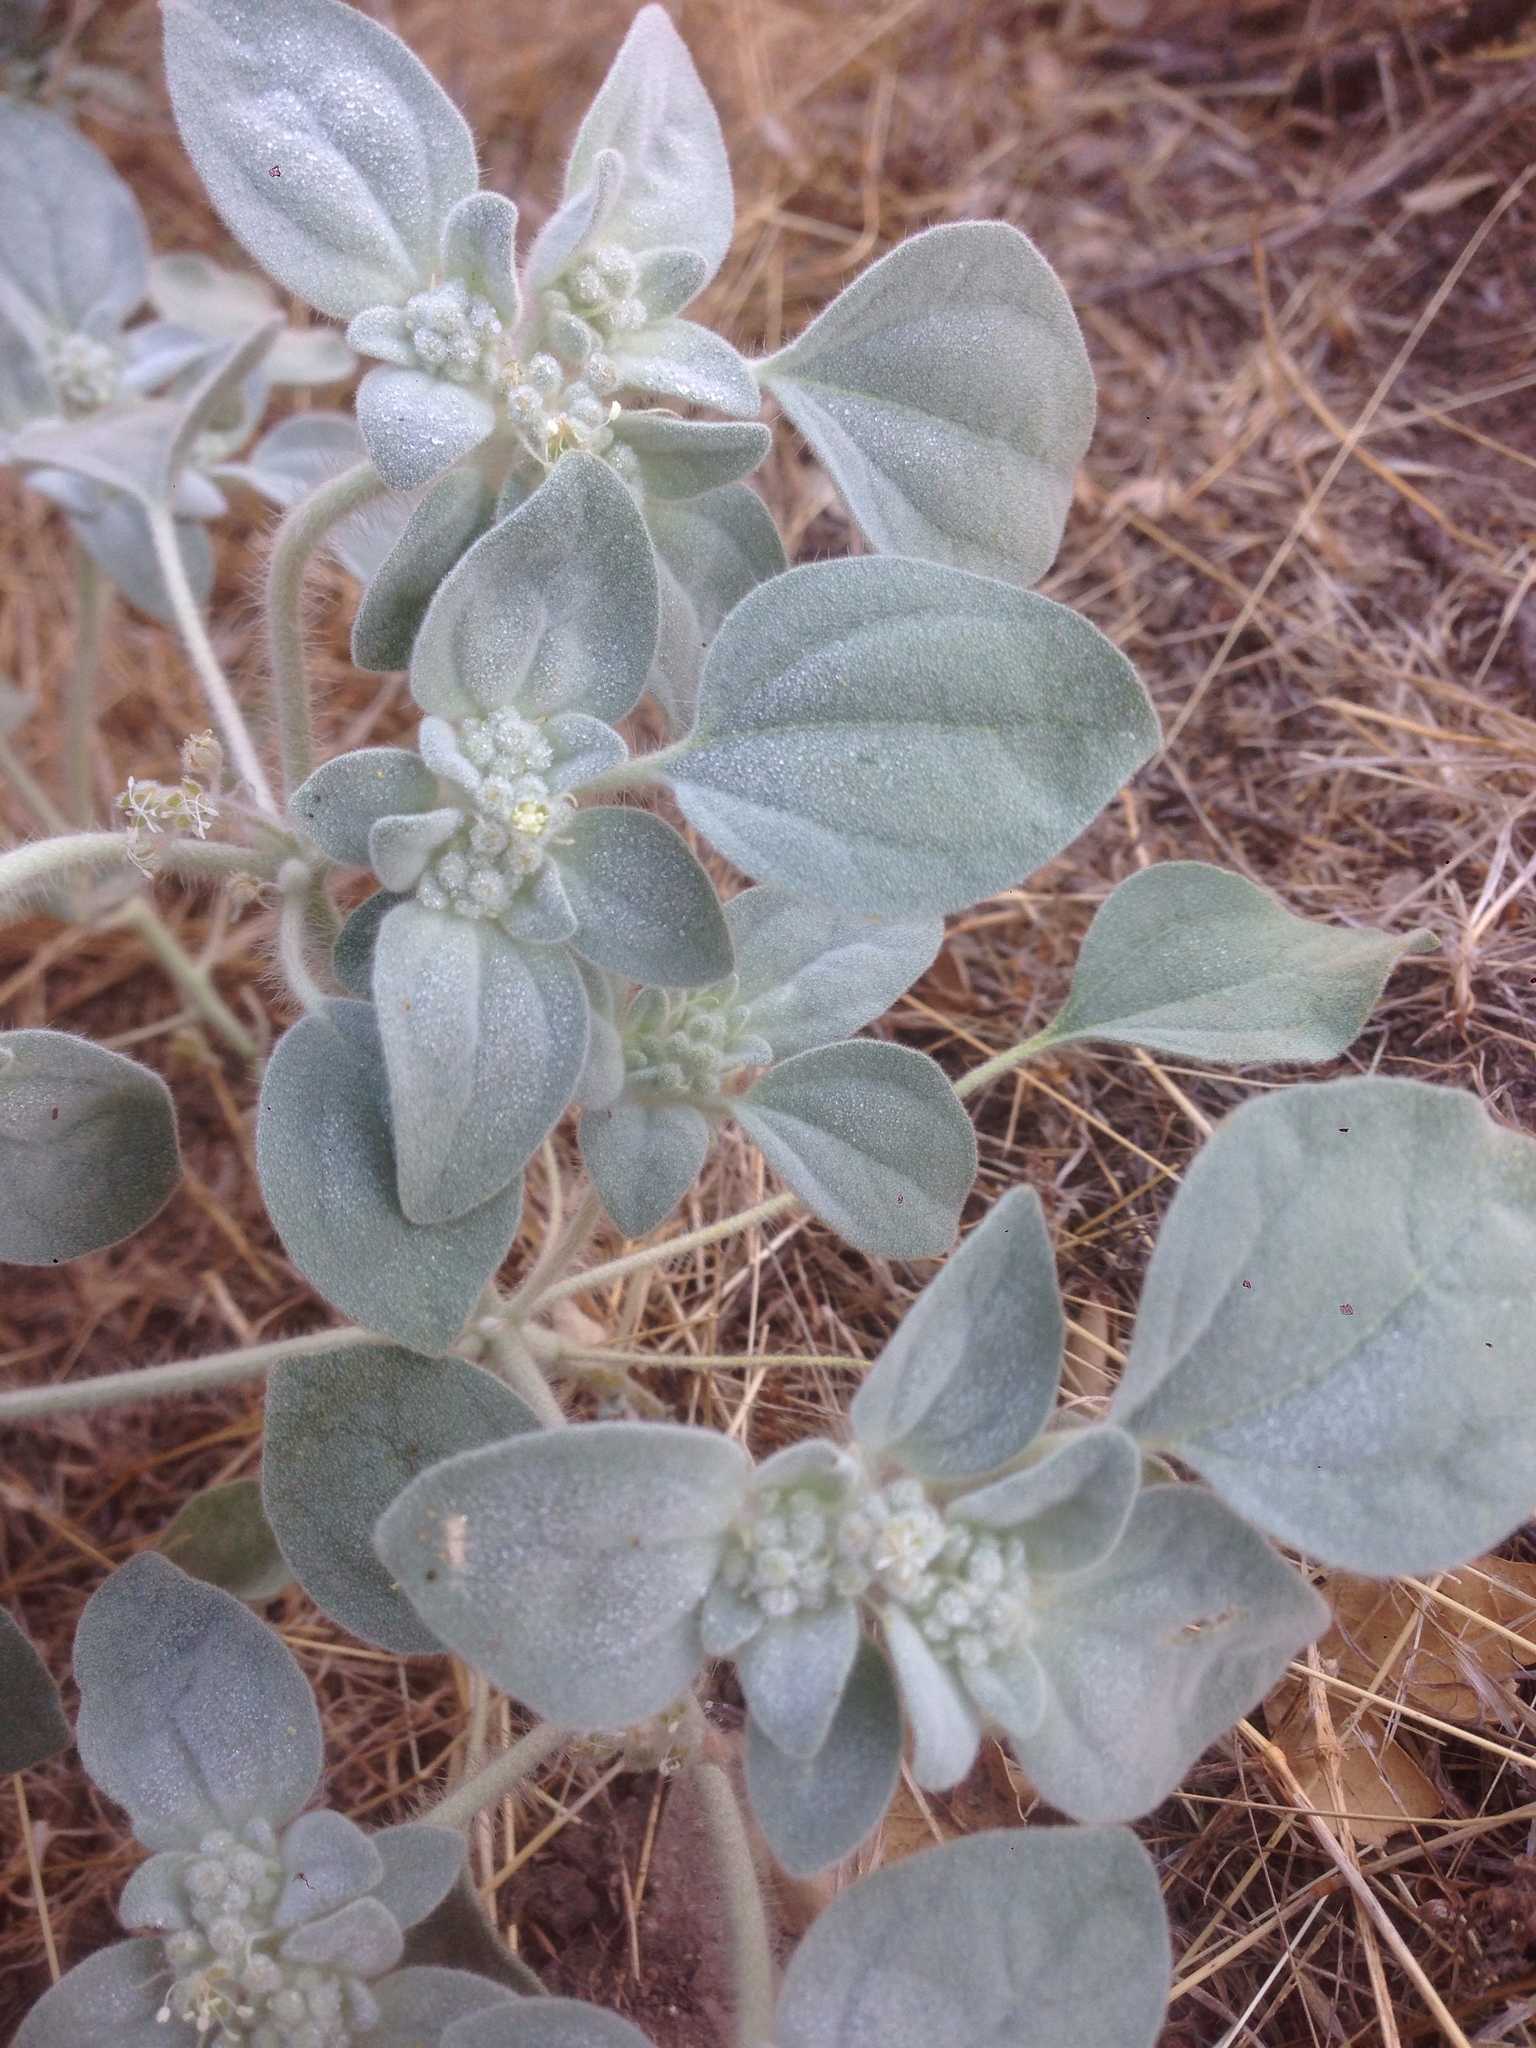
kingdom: Plantae
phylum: Tracheophyta
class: Magnoliopsida
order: Malpighiales
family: Euphorbiaceae
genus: Croton
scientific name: Croton setiger
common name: Dove weed
